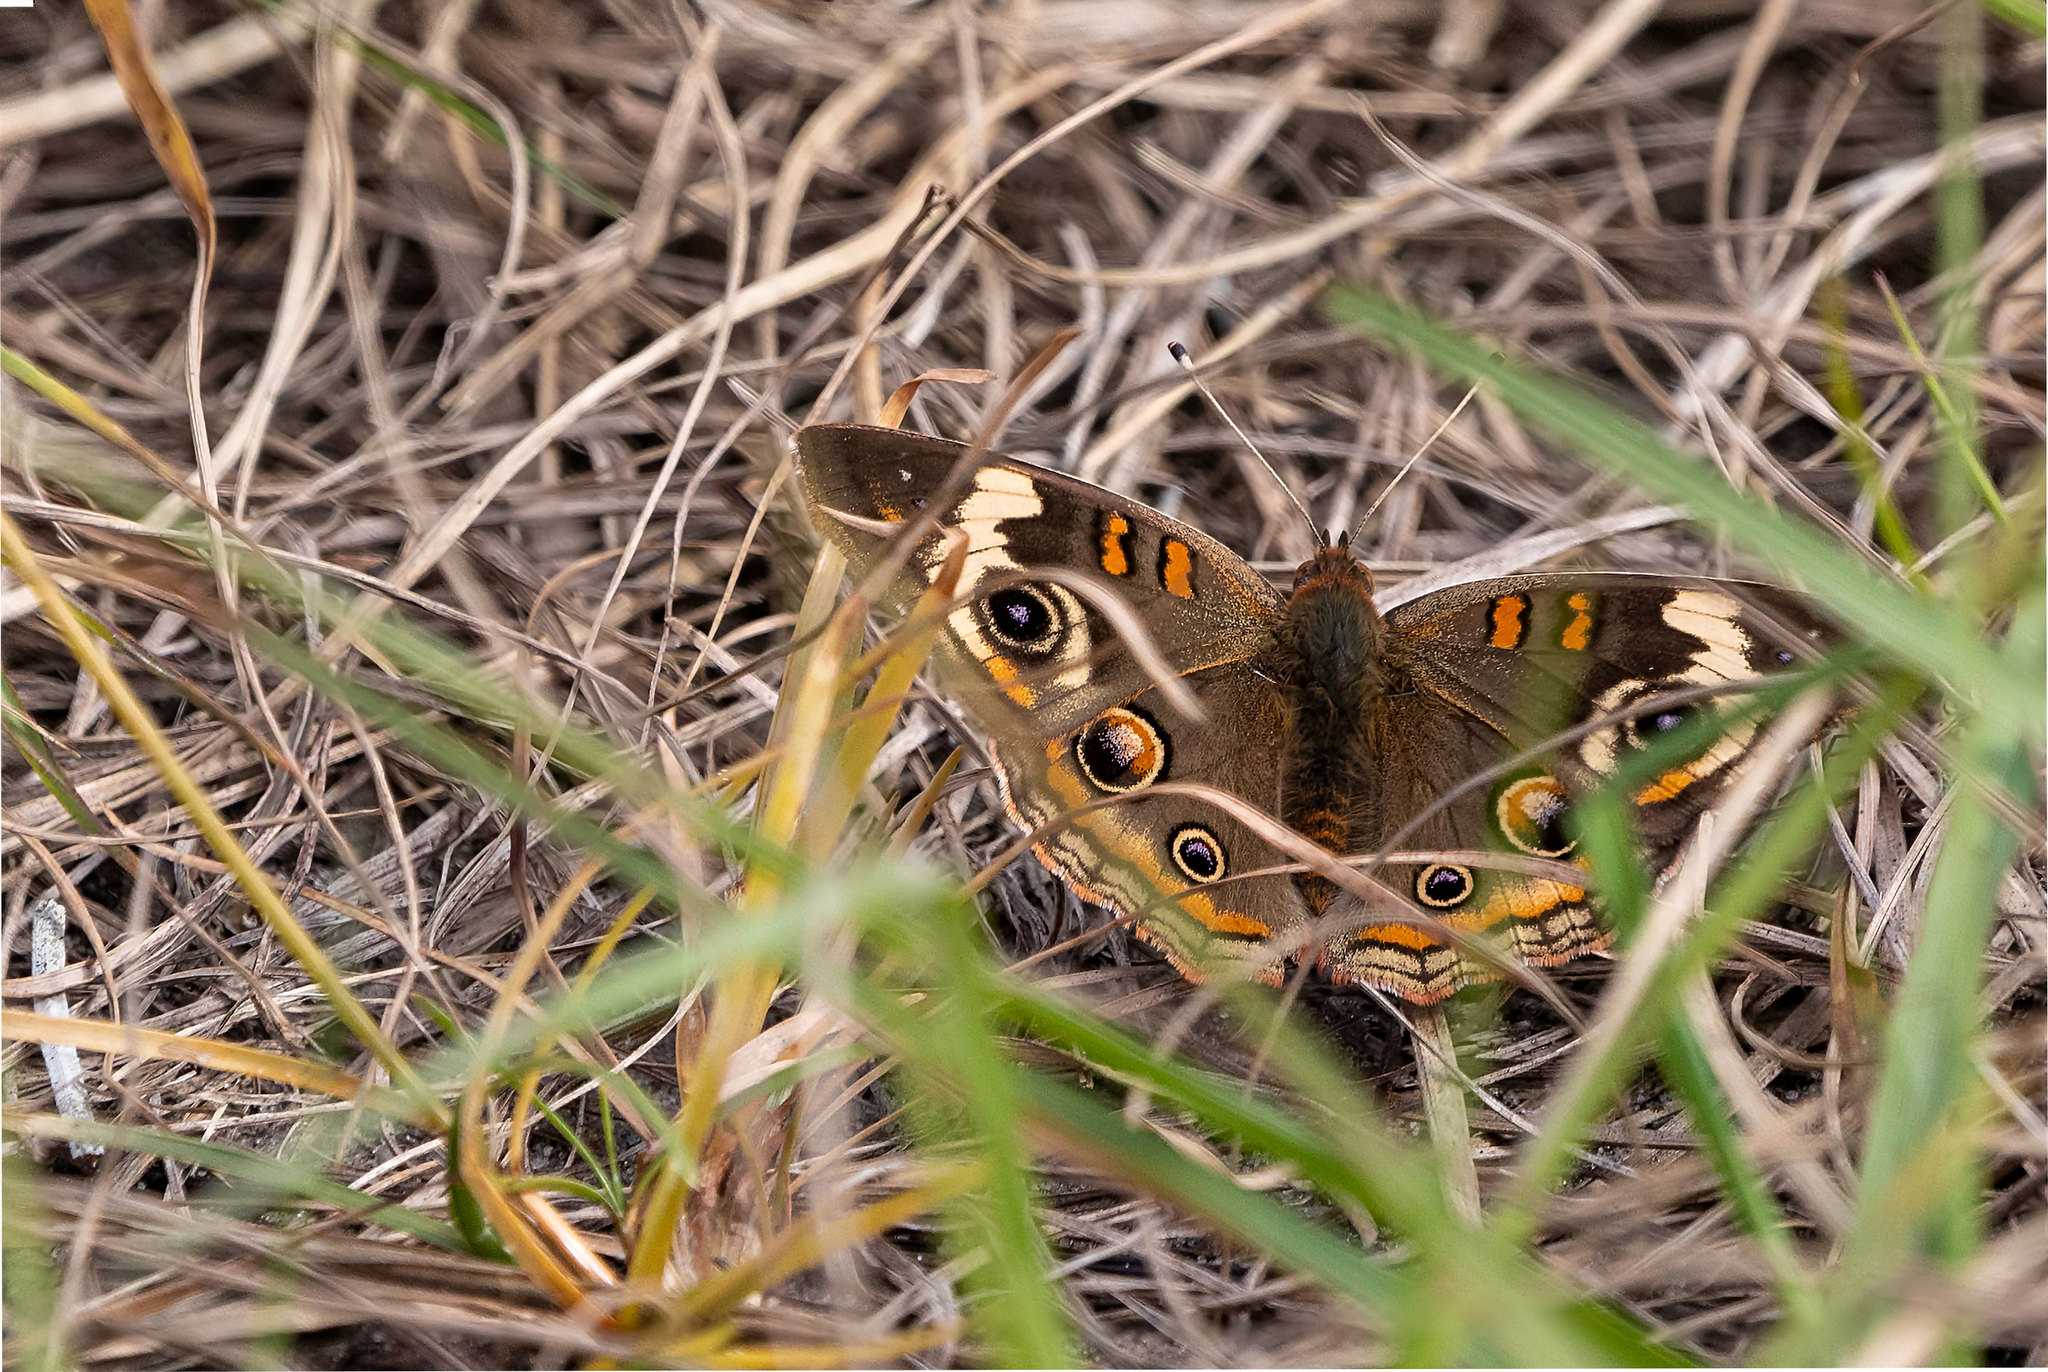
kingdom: Animalia
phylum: Arthropoda
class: Insecta
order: Lepidoptera
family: Nymphalidae
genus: Junonia
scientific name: Junonia coenia
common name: Common buckeye
